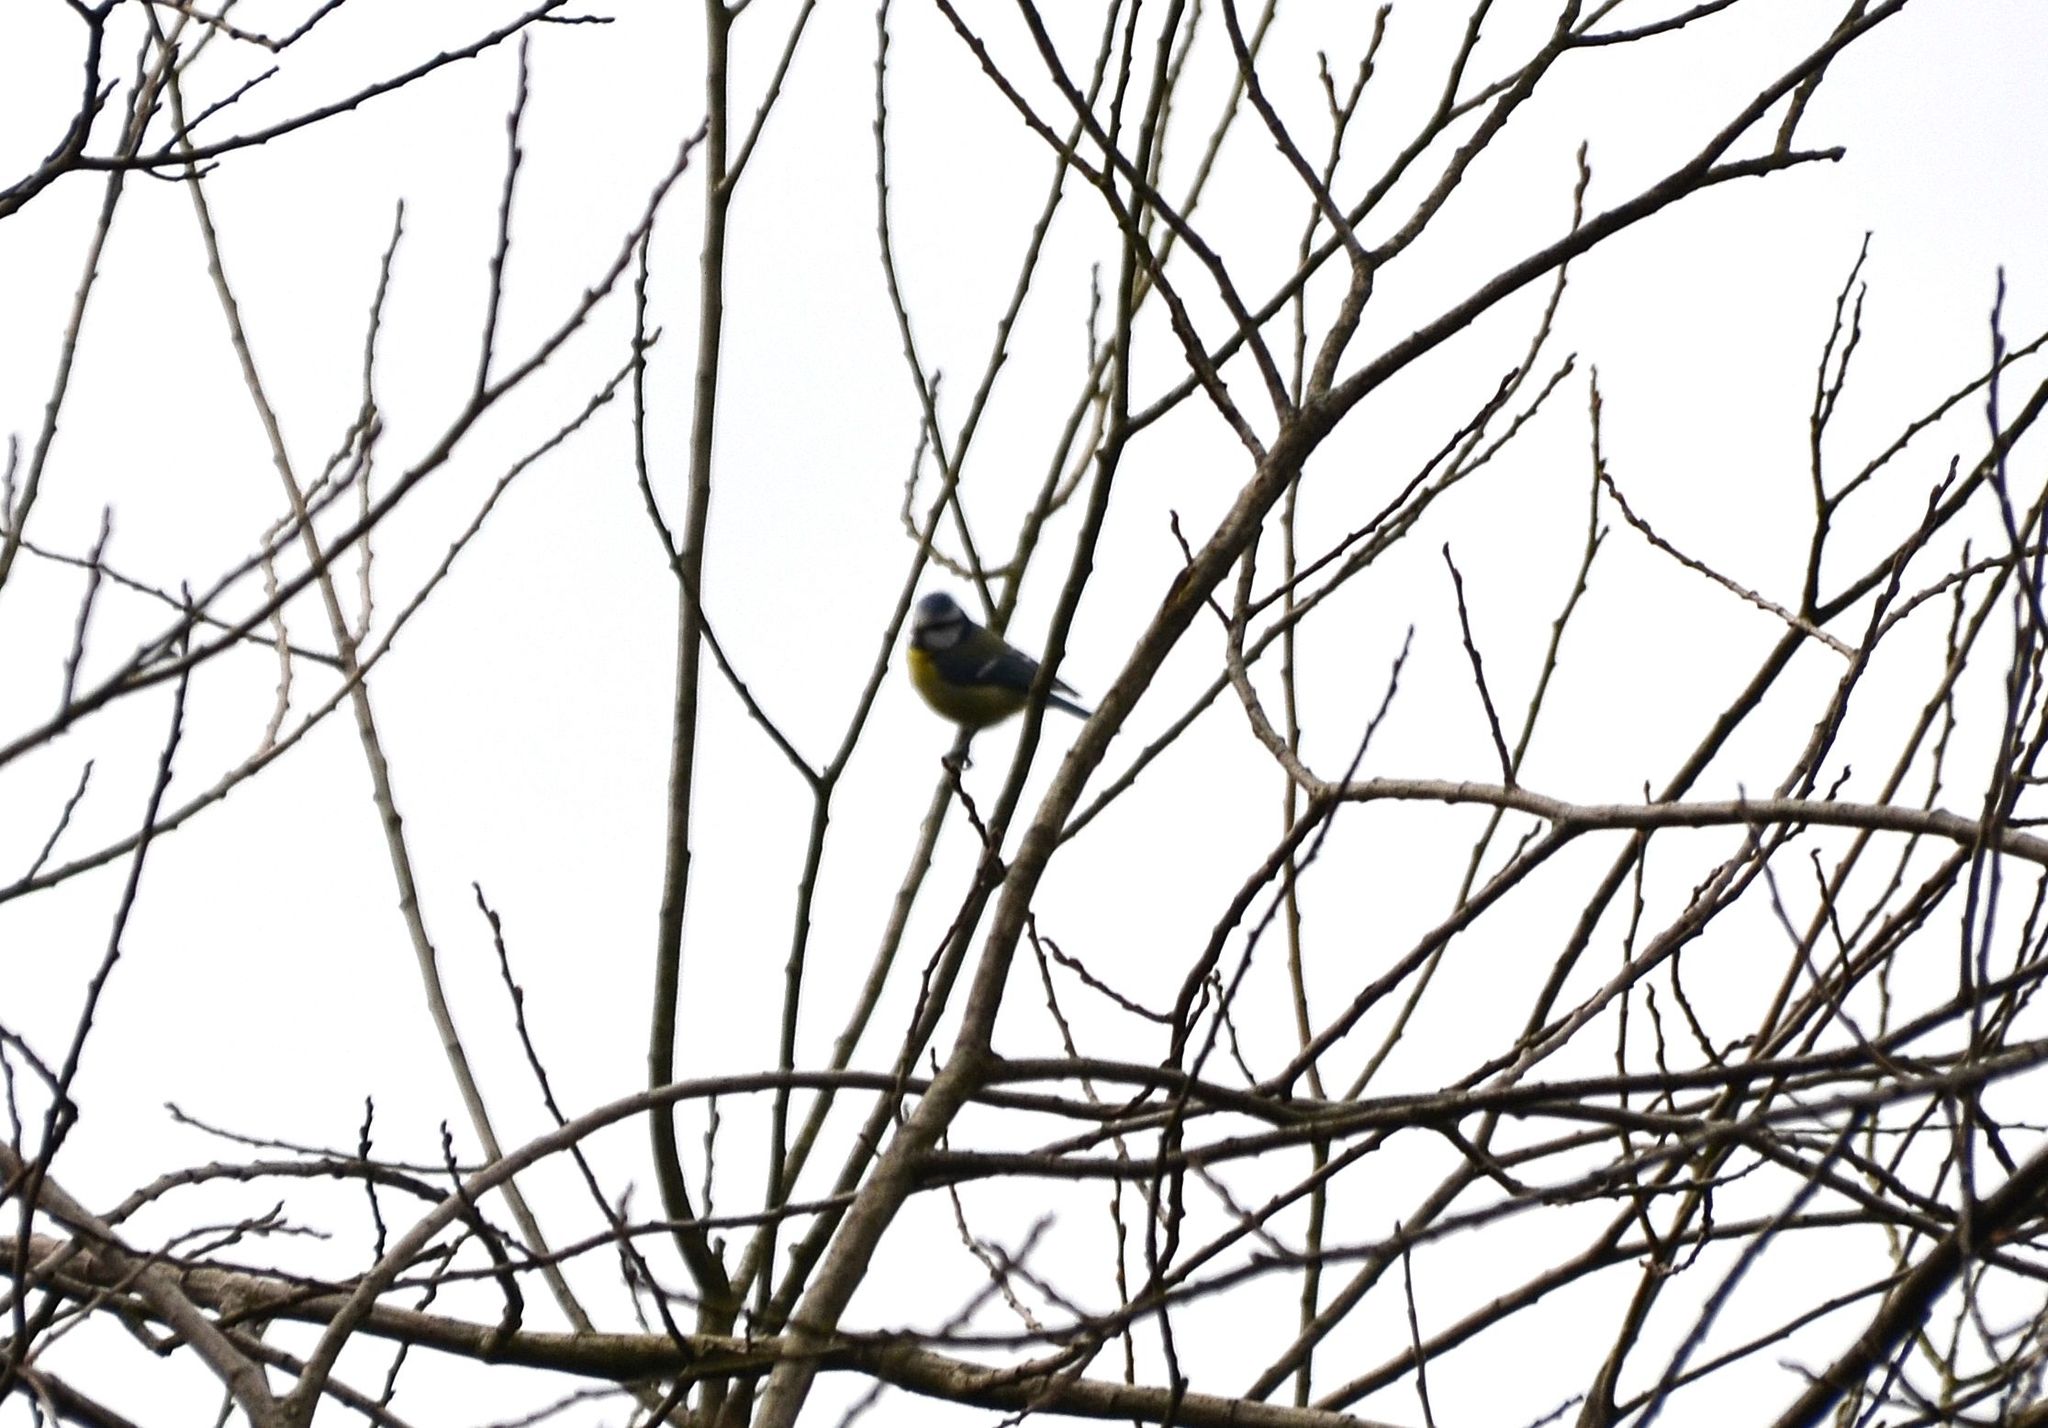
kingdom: Animalia
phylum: Chordata
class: Aves
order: Passeriformes
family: Paridae
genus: Cyanistes
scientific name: Cyanistes caeruleus
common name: Eurasian blue tit
